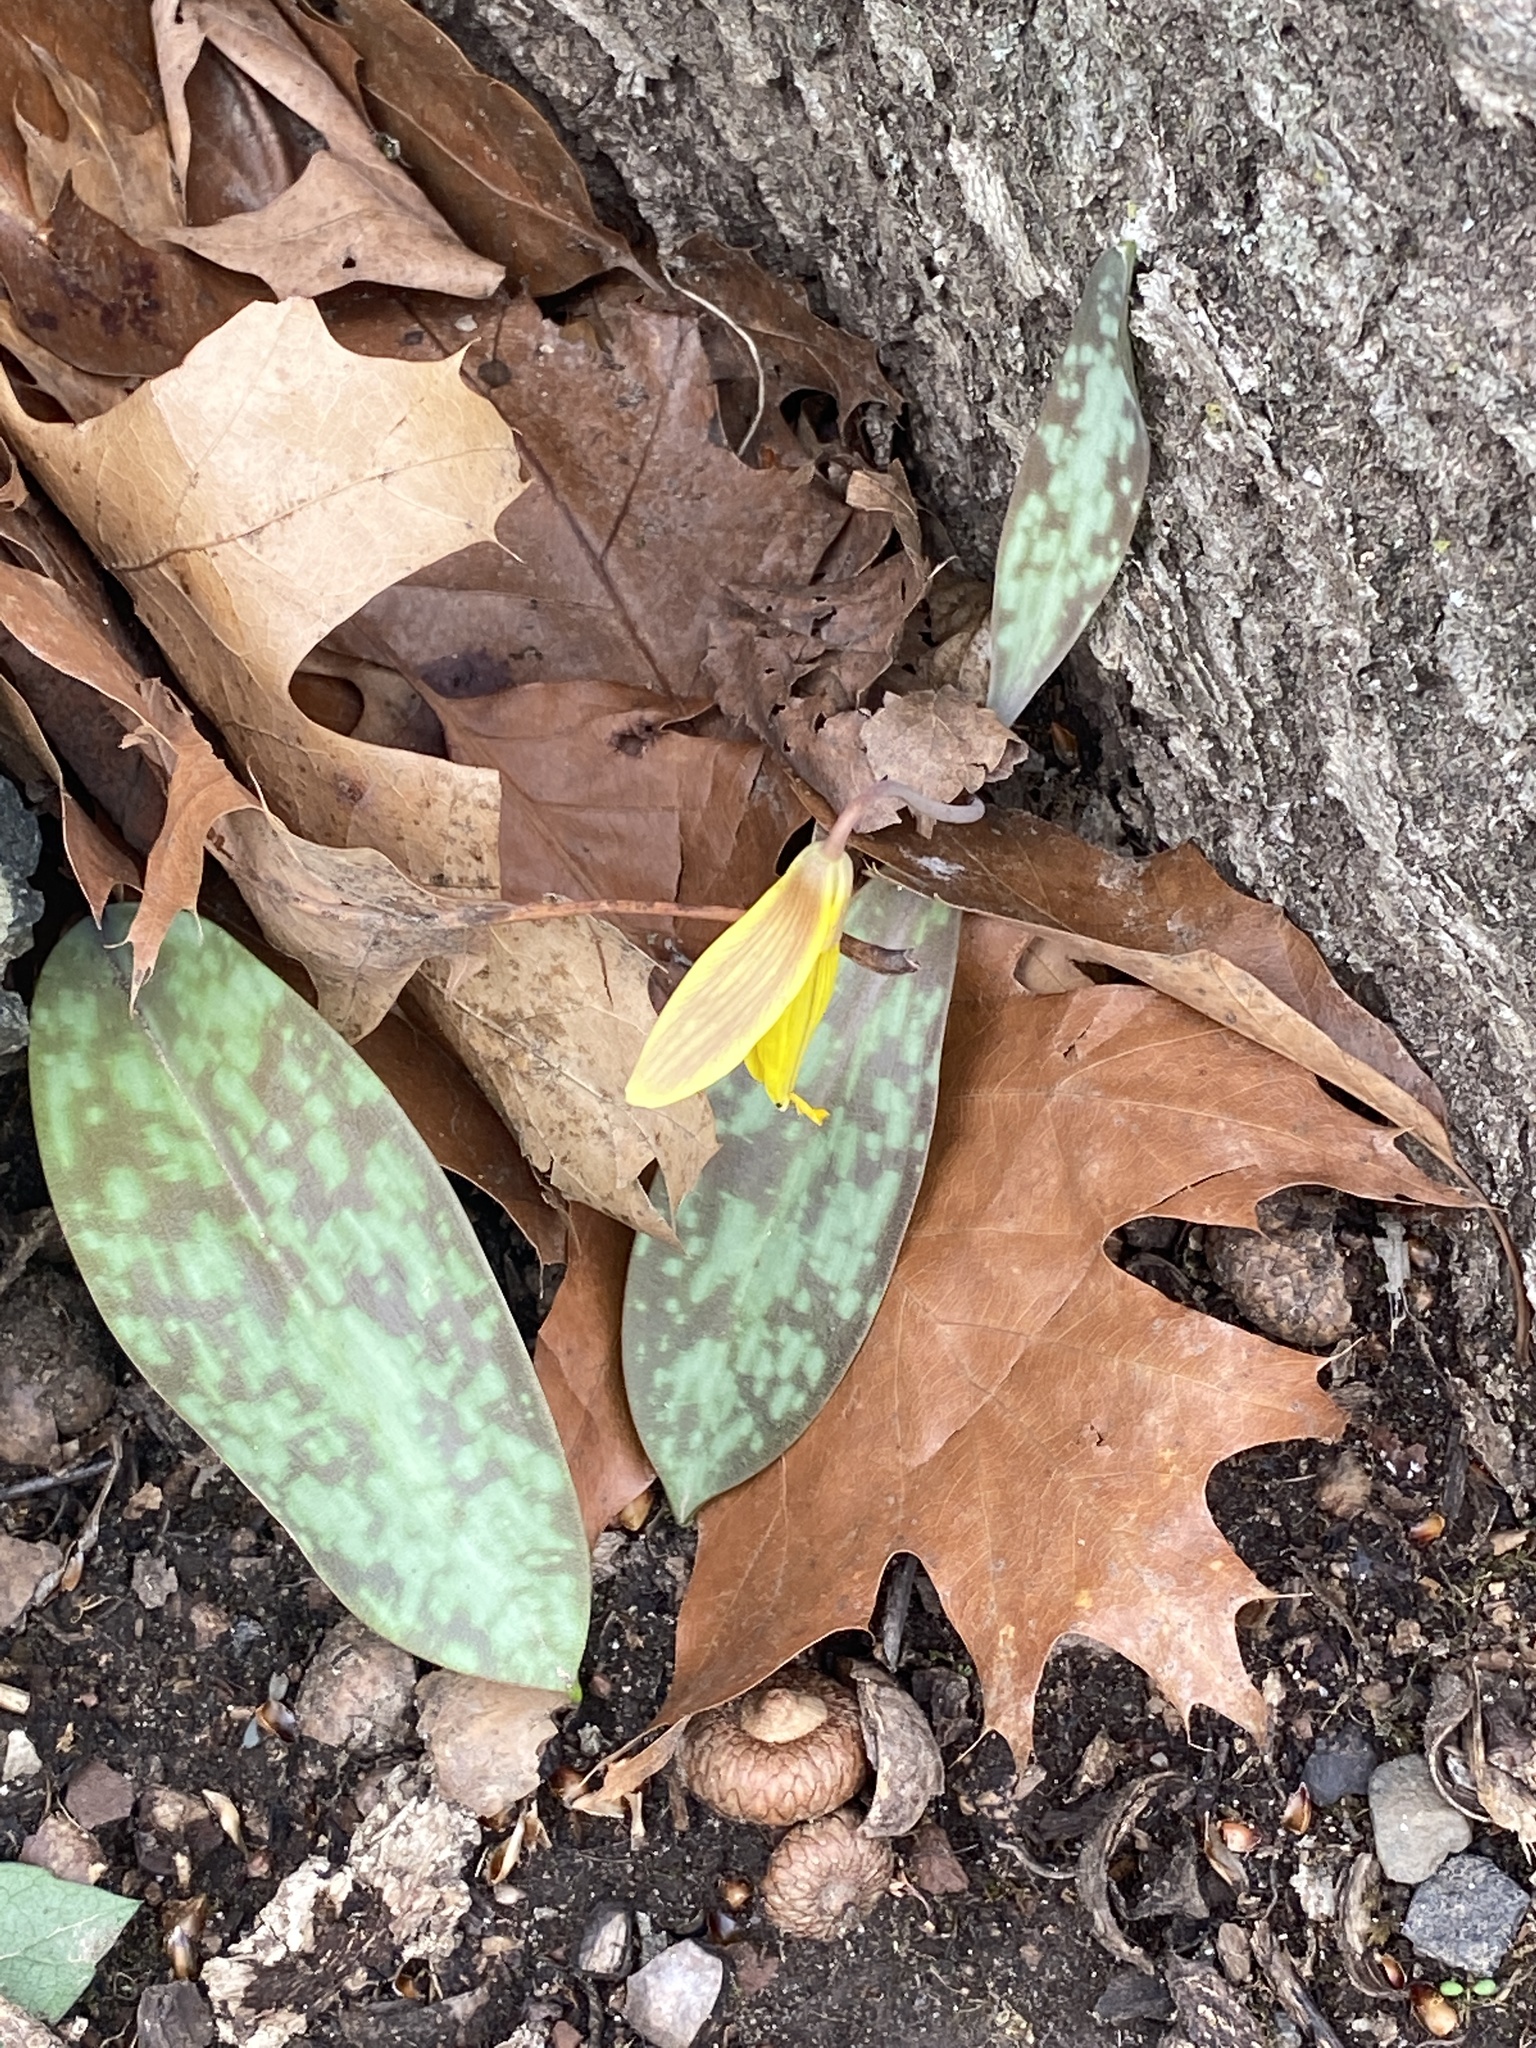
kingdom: Plantae
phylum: Tracheophyta
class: Liliopsida
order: Liliales
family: Liliaceae
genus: Erythronium
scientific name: Erythronium americanum
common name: Yellow adder's-tongue
